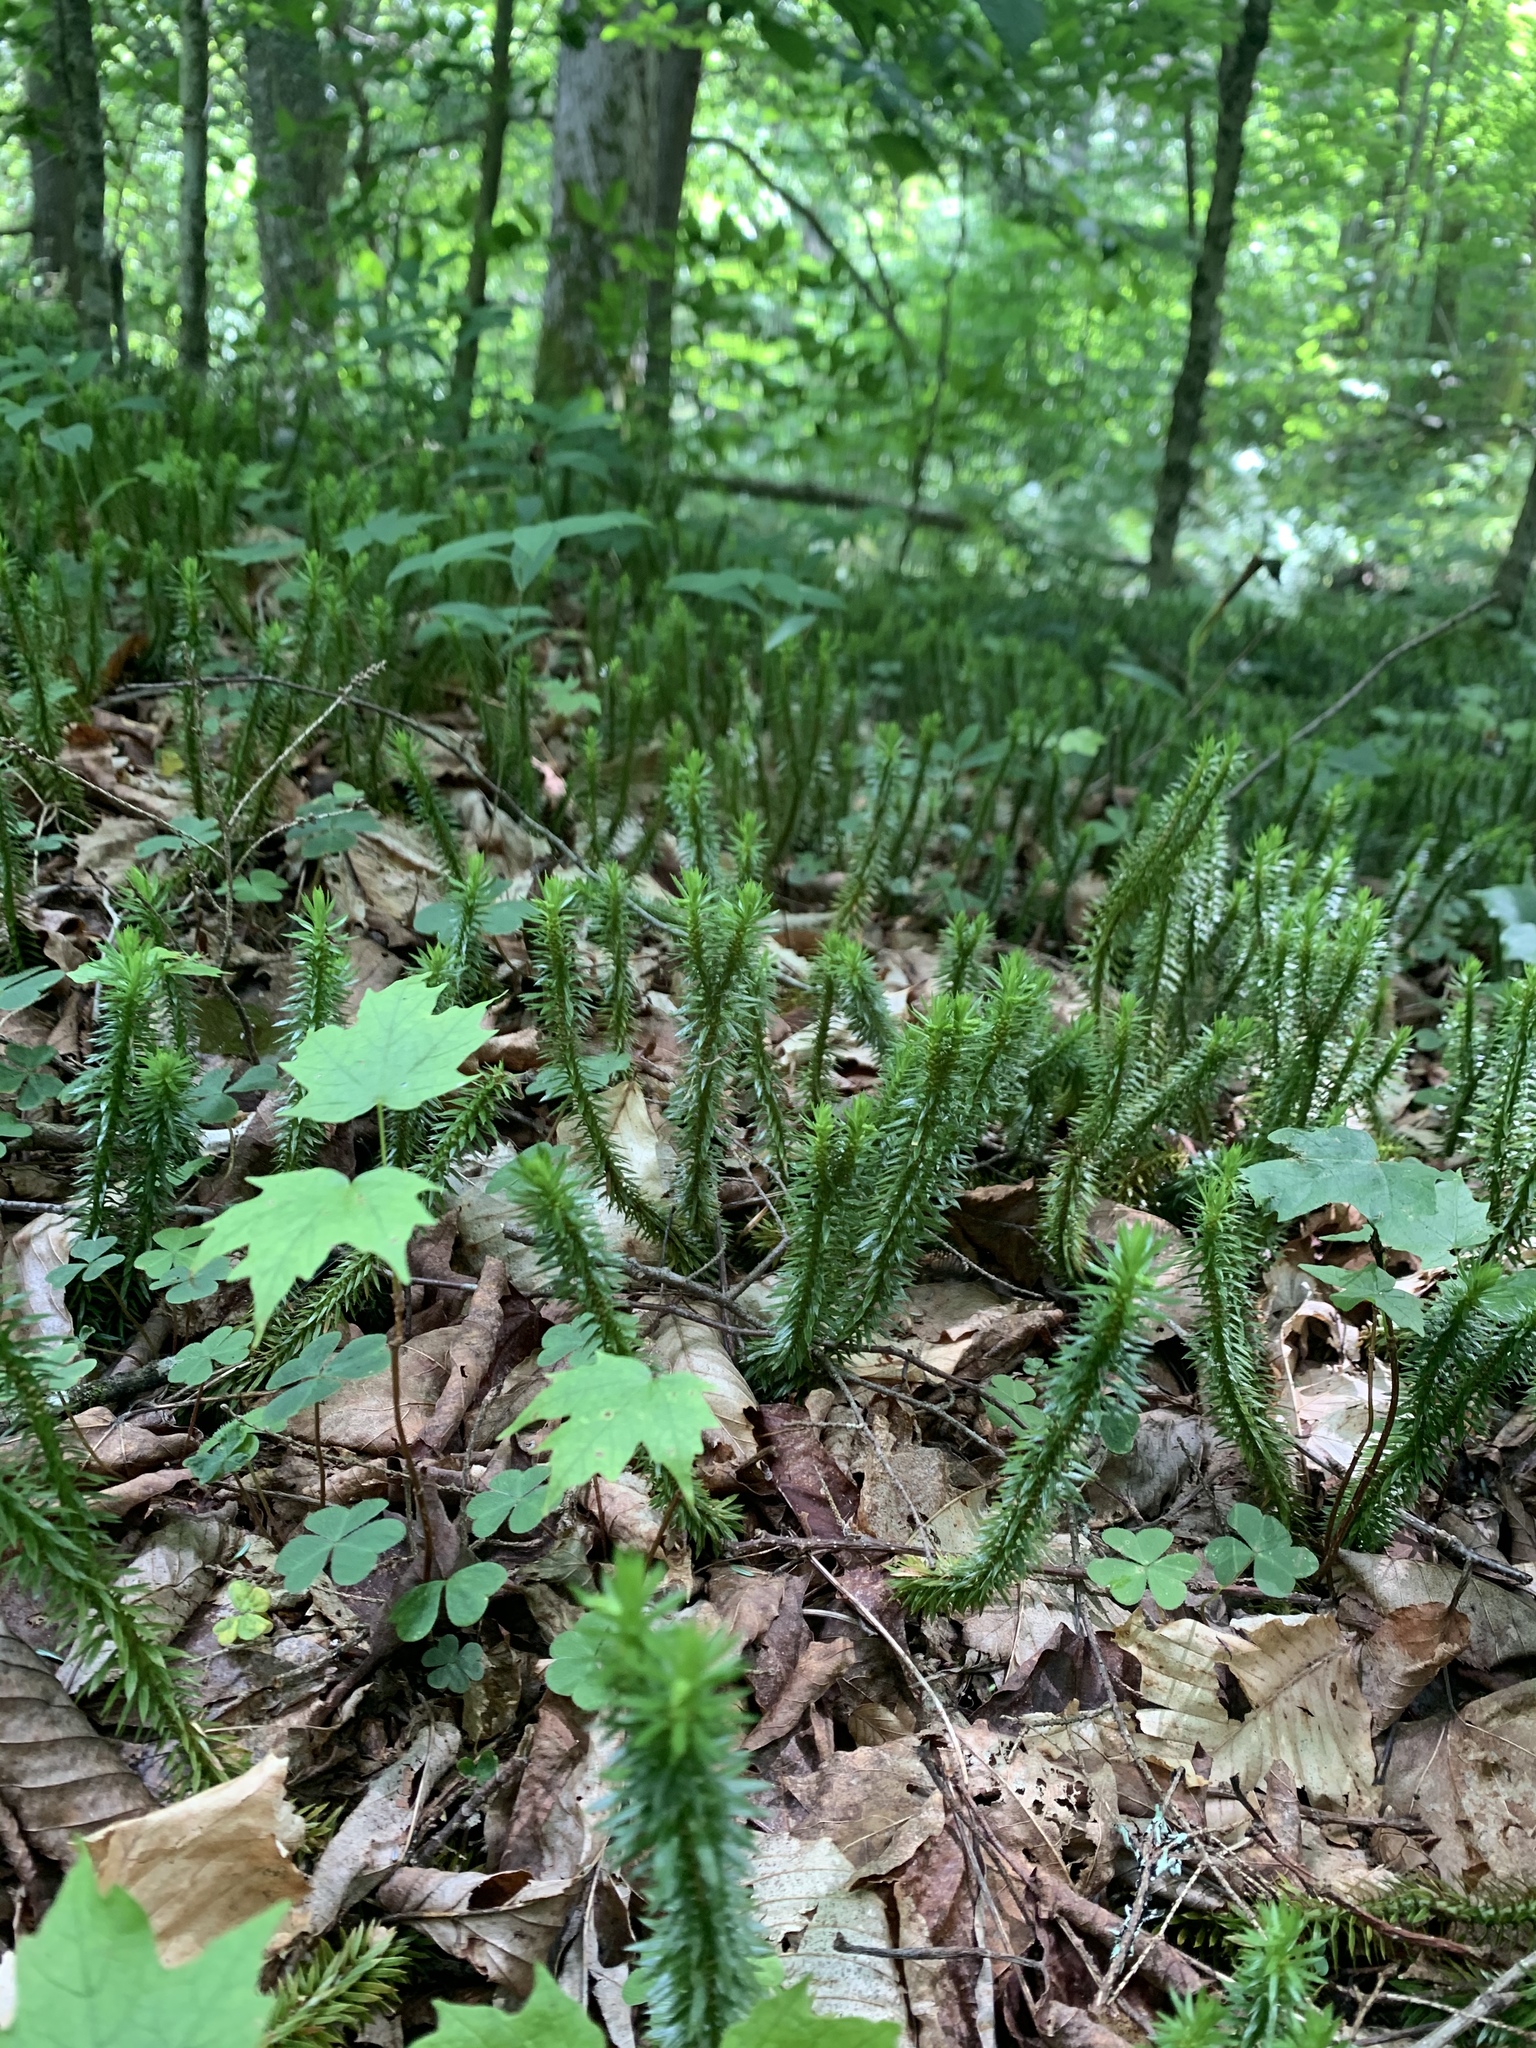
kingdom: Plantae
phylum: Tracheophyta
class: Lycopodiopsida
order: Lycopodiales
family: Lycopodiaceae
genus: Huperzia
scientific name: Huperzia lucidula
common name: Shining clubmoss
